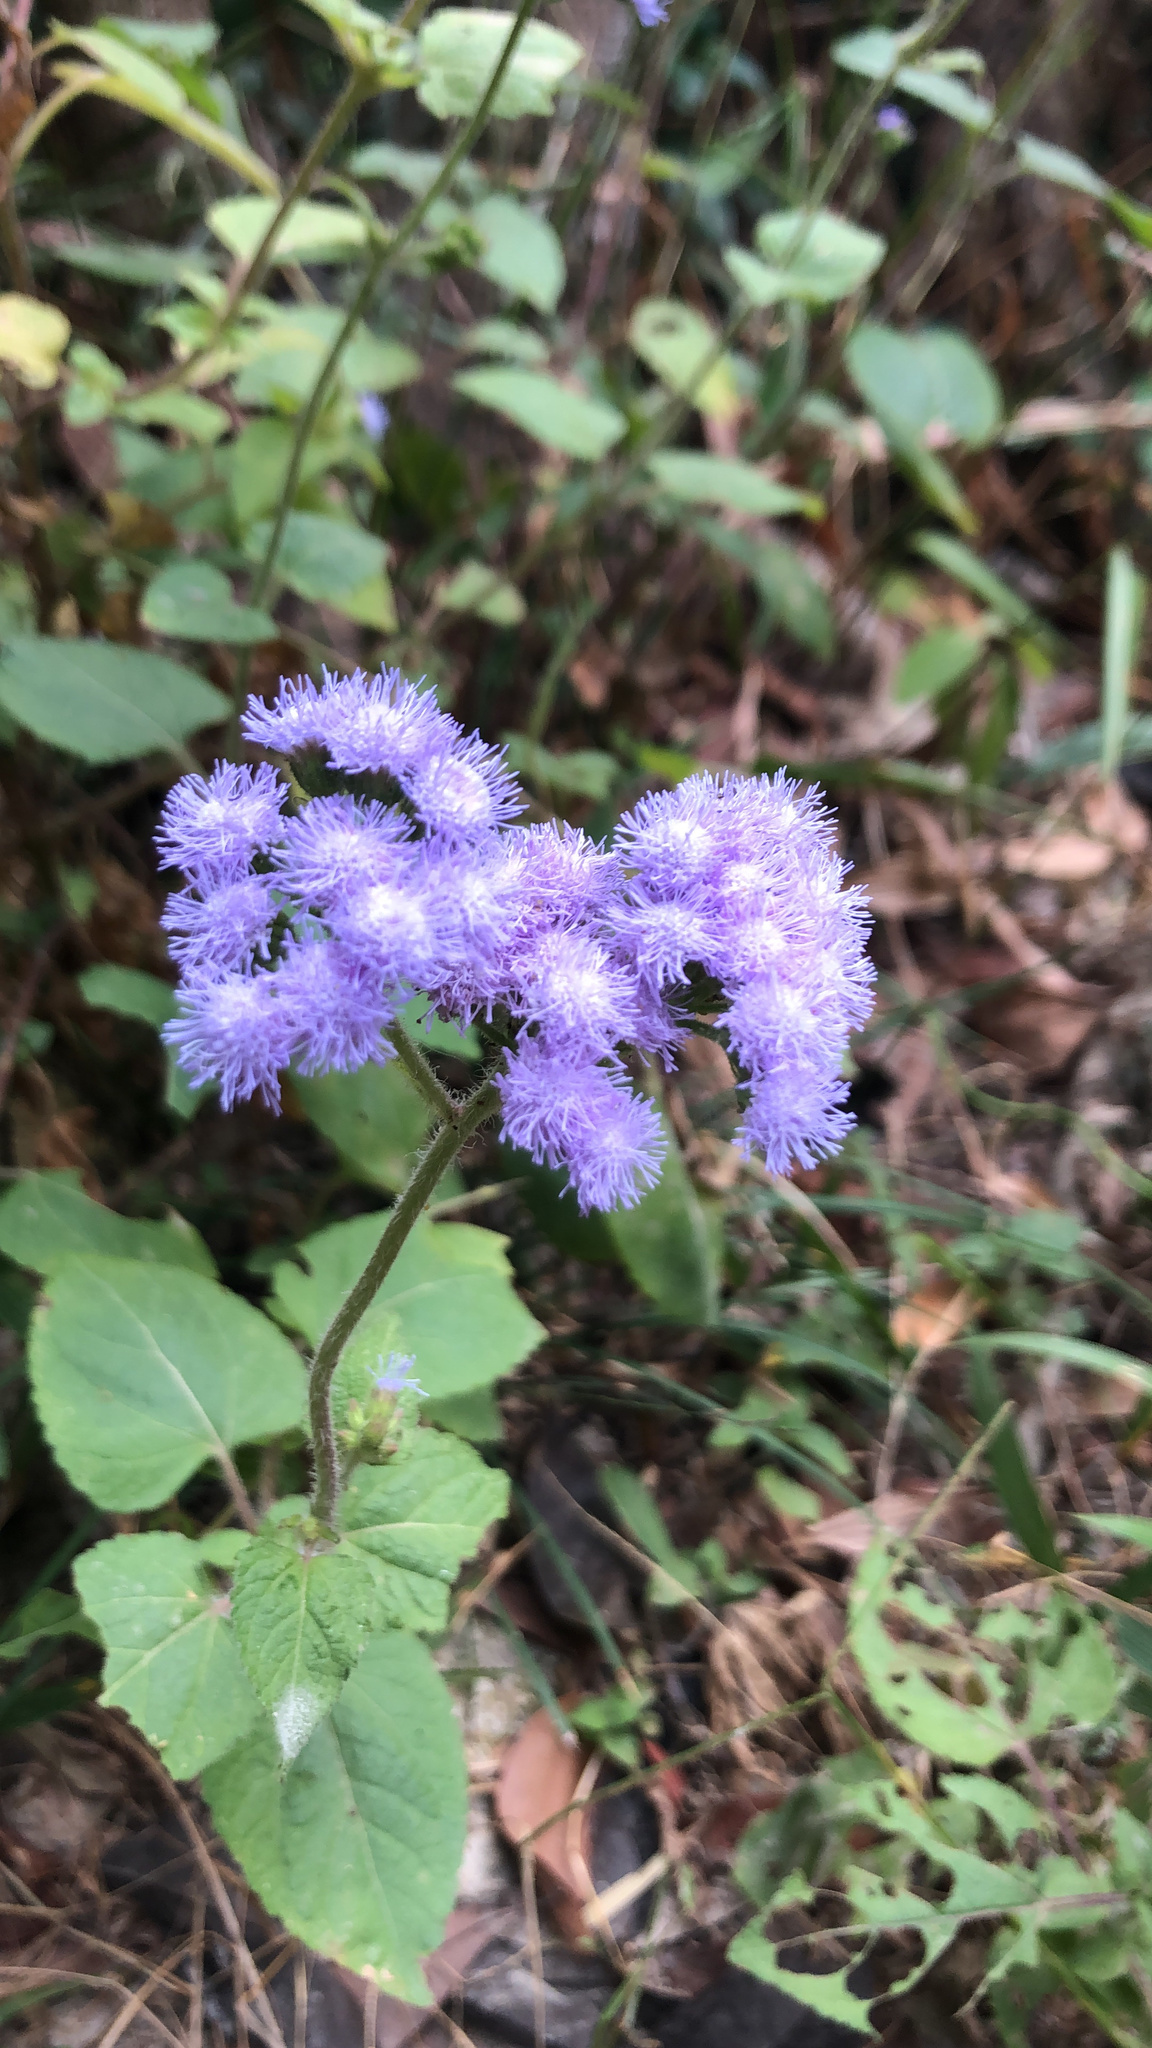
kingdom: Plantae
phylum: Tracheophyta
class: Magnoliopsida
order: Asterales
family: Asteraceae
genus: Ageratum
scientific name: Ageratum houstonianum
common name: Bluemink
